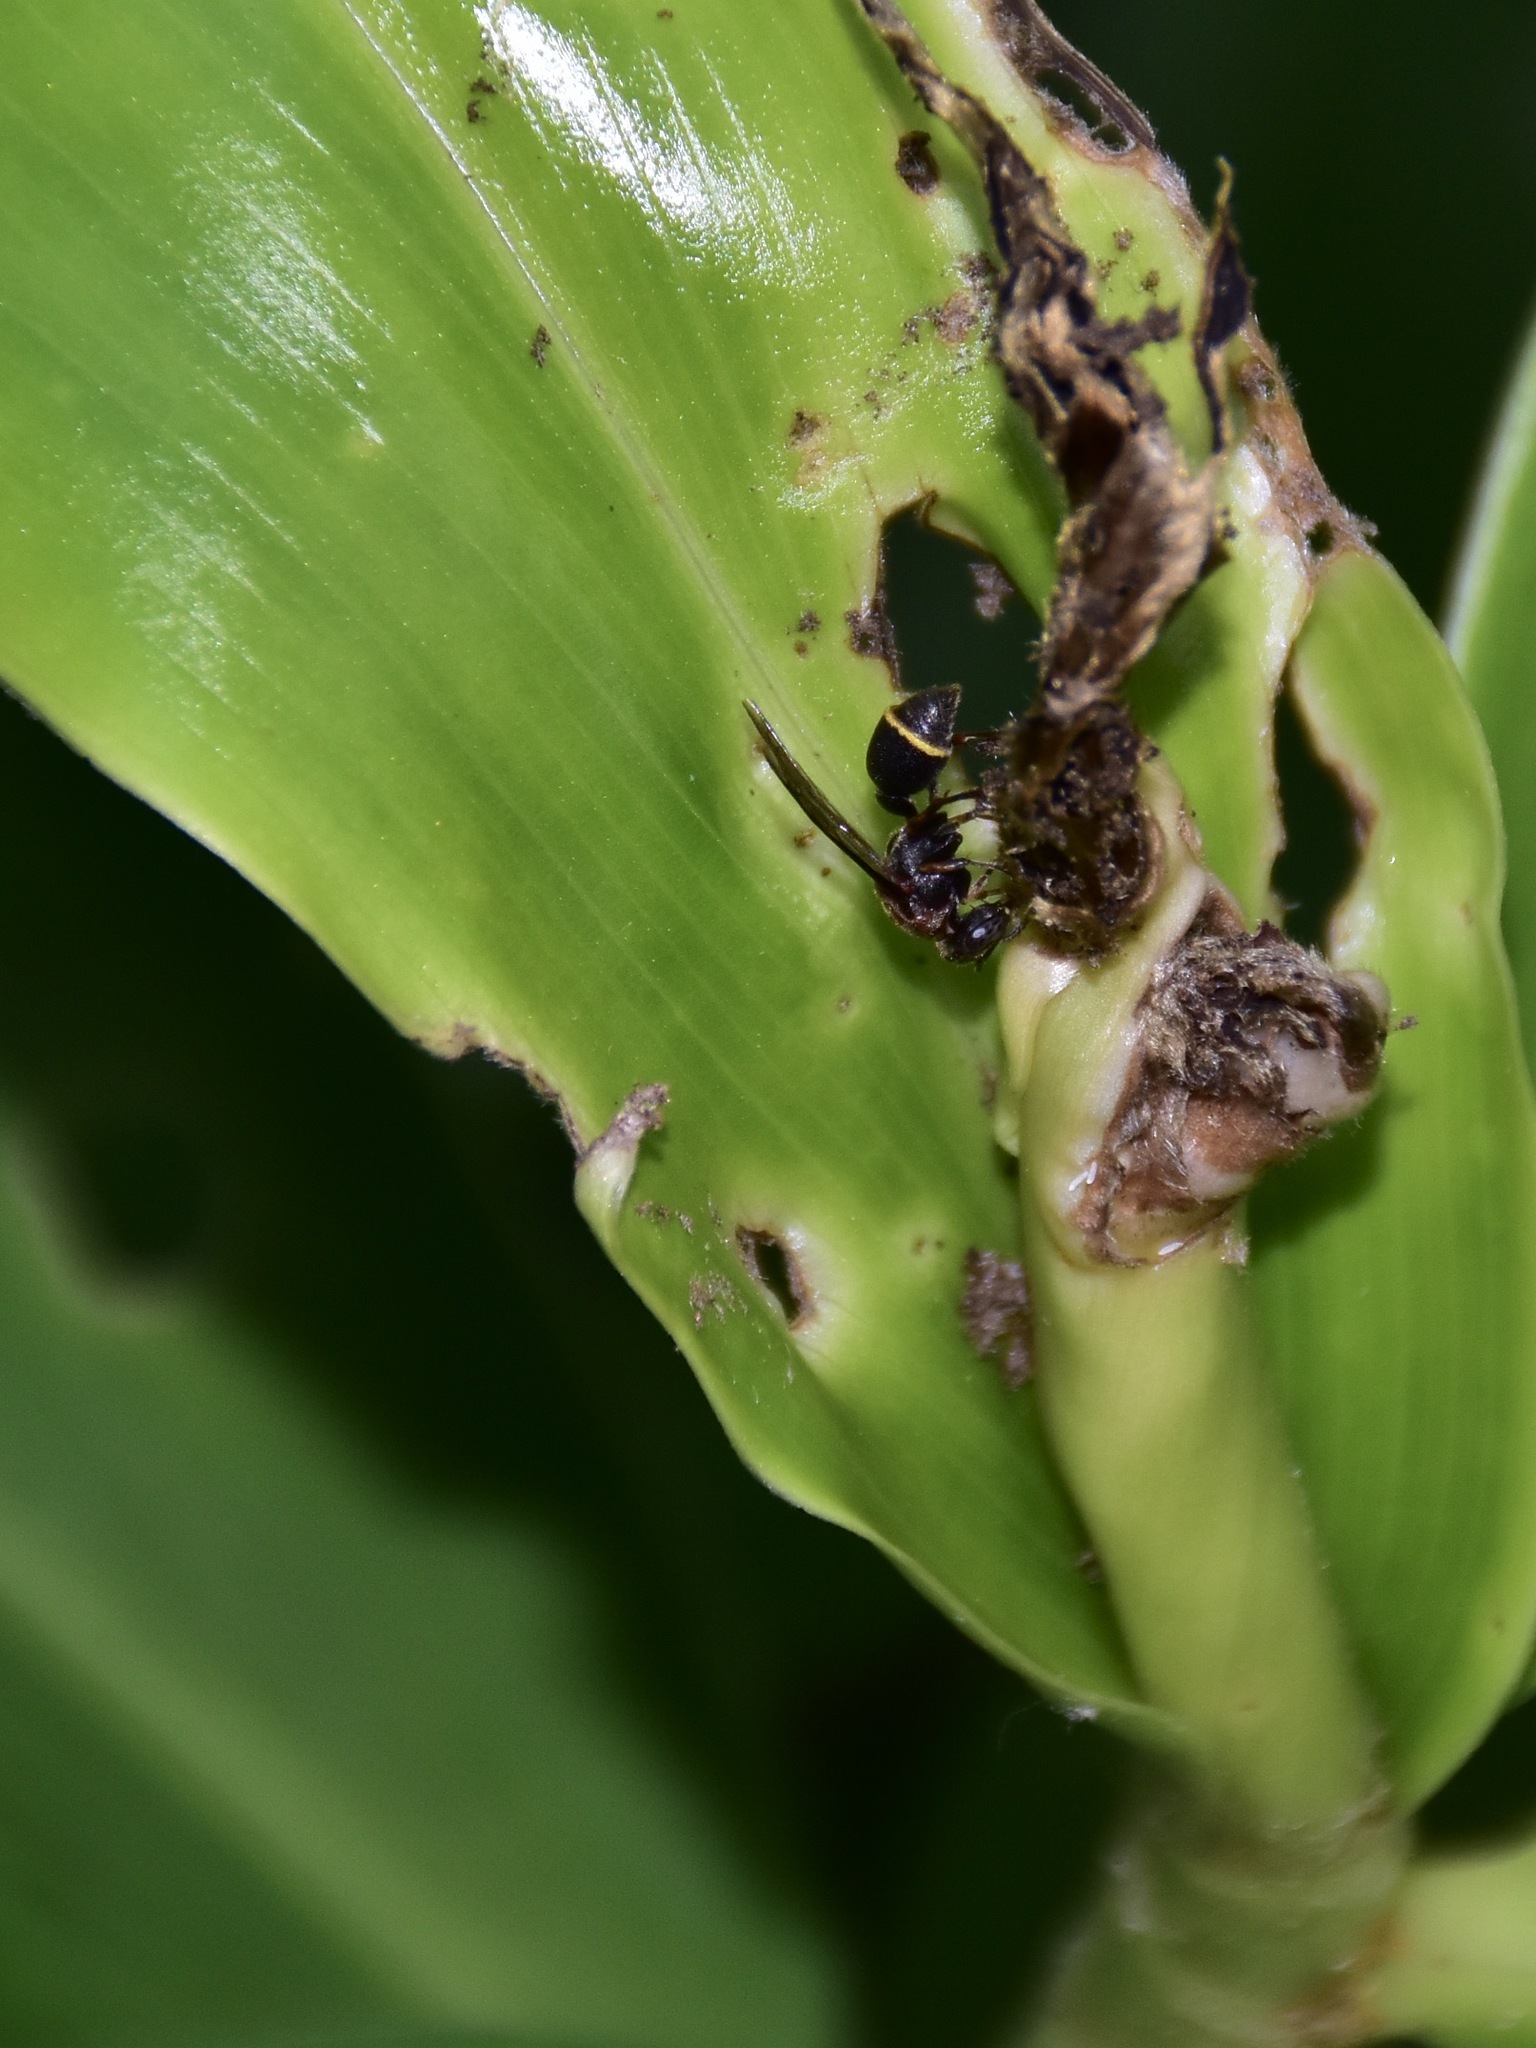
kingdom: Animalia
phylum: Arthropoda
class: Insecta
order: Hymenoptera
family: Vespidae
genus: Ropalidia
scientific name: Ropalidia erythrospila
